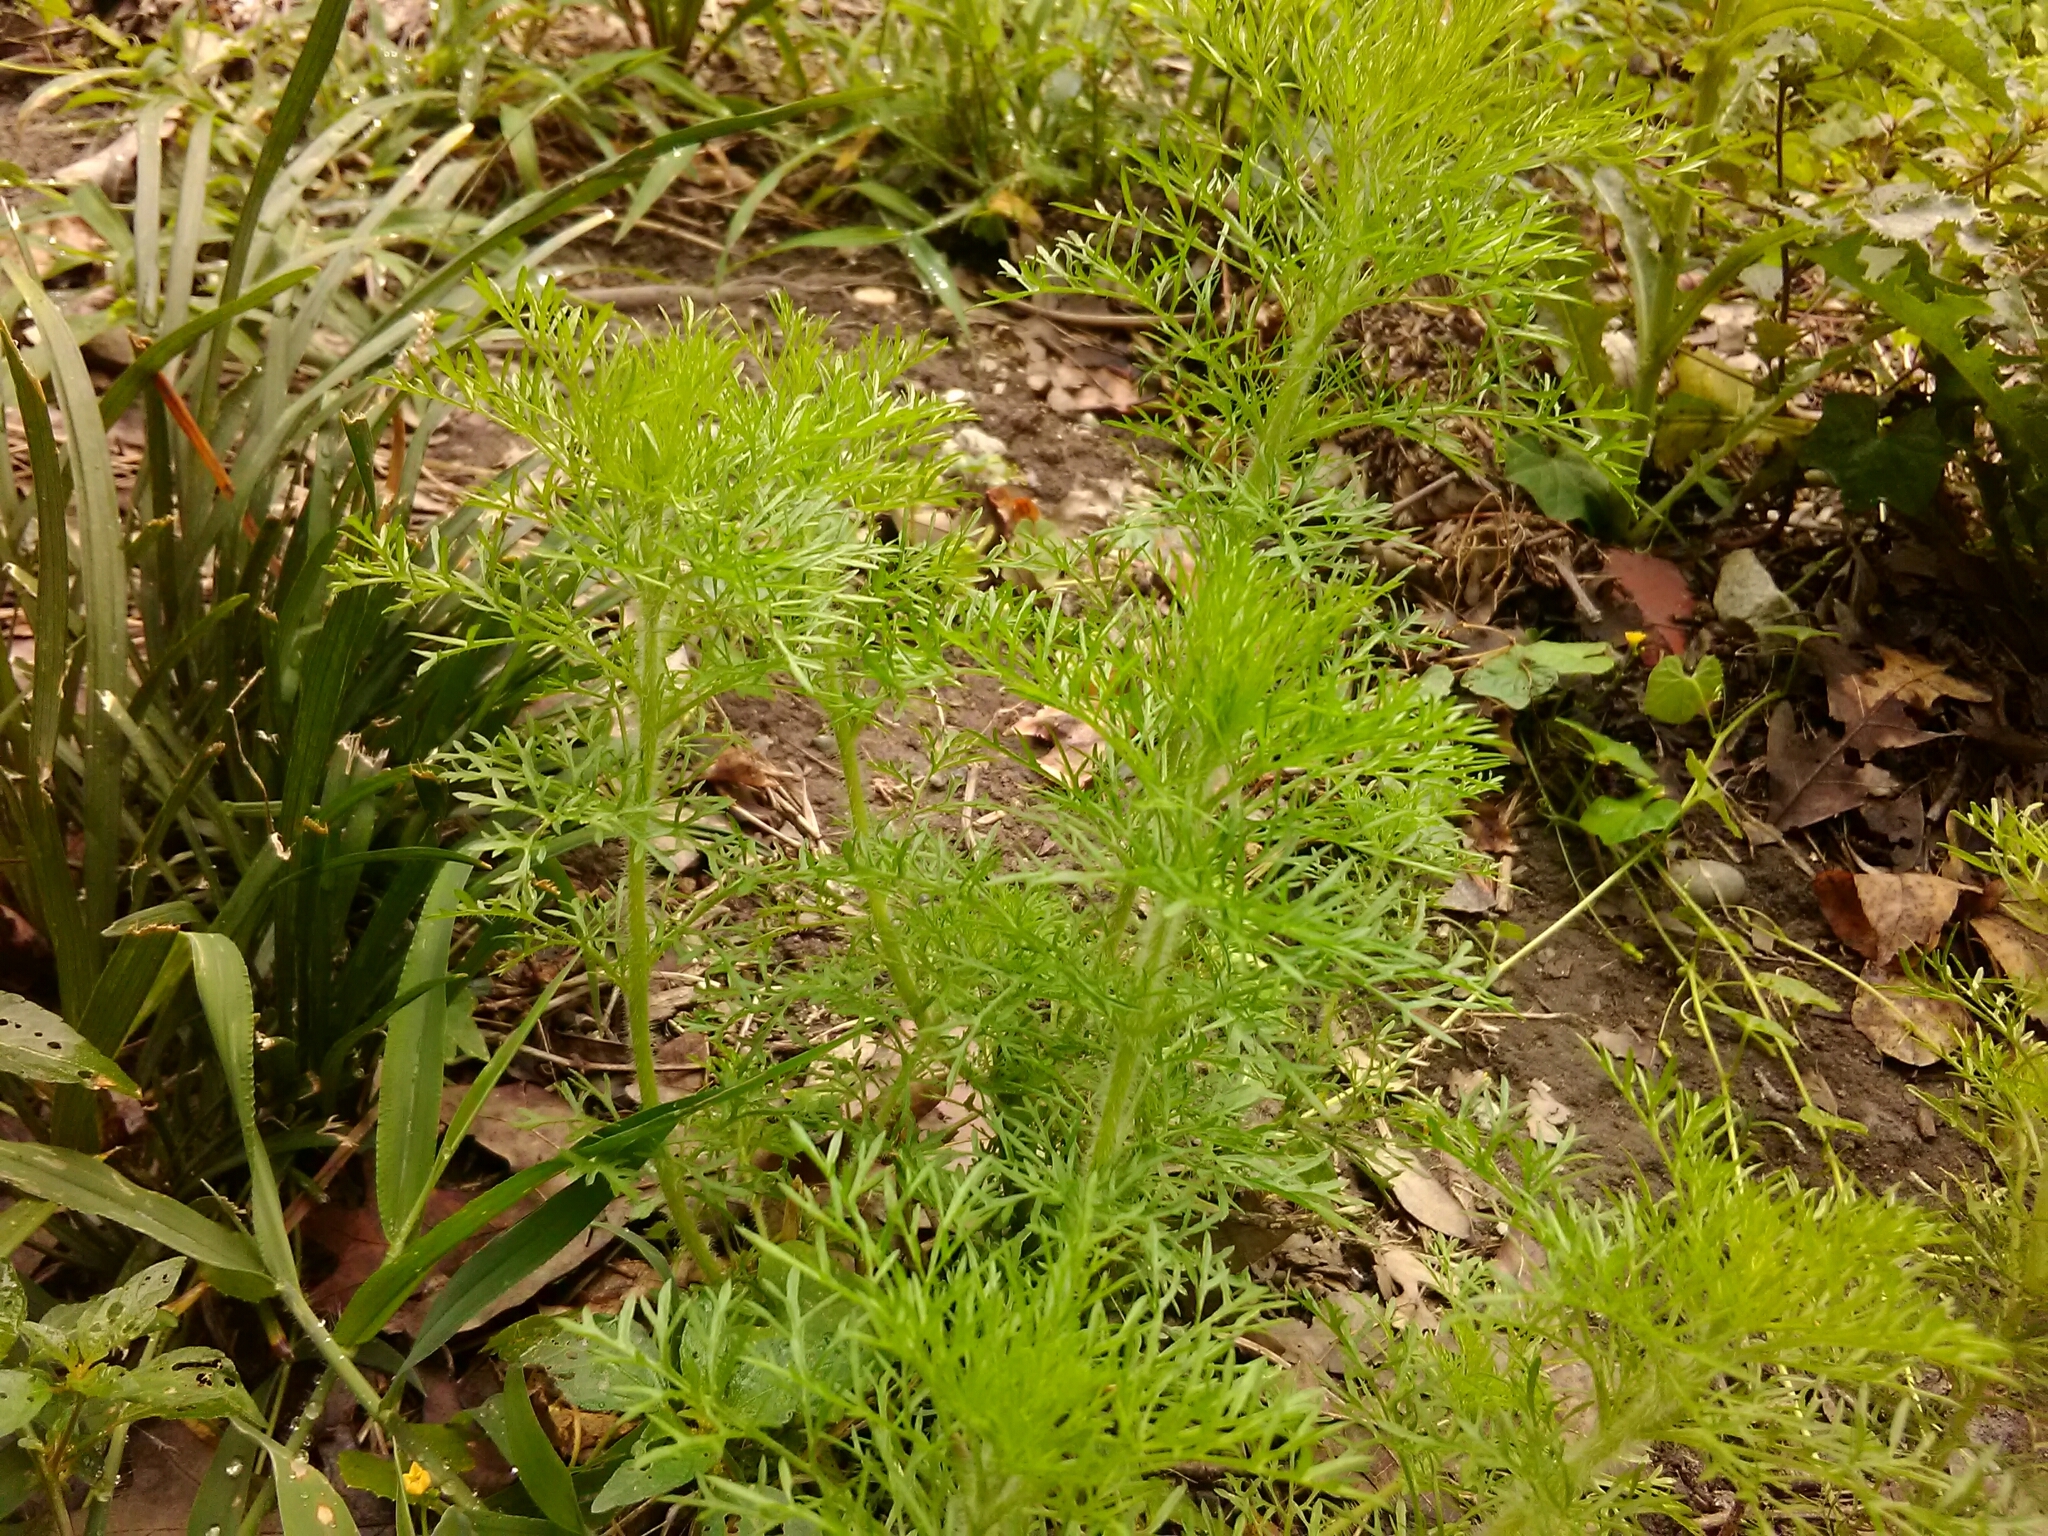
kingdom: Plantae
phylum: Tracheophyta
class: Magnoliopsida
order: Asterales
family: Asteraceae
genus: Eupatorium
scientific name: Eupatorium capillifolium
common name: Dog-fennel
